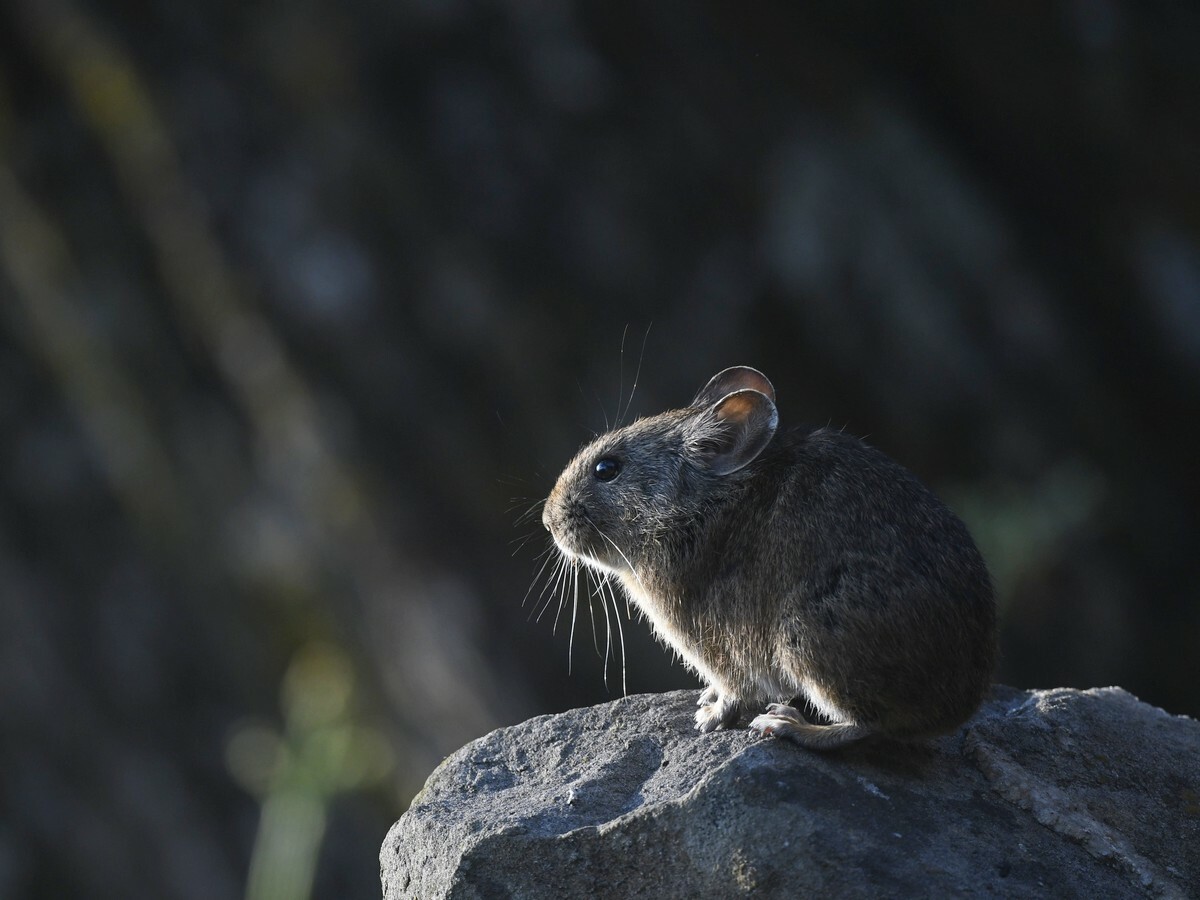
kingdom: Animalia
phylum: Chordata
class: Mammalia
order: Lagomorpha
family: Ochotonidae
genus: Ochotona
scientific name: Ochotona roylii
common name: Royle s pika
